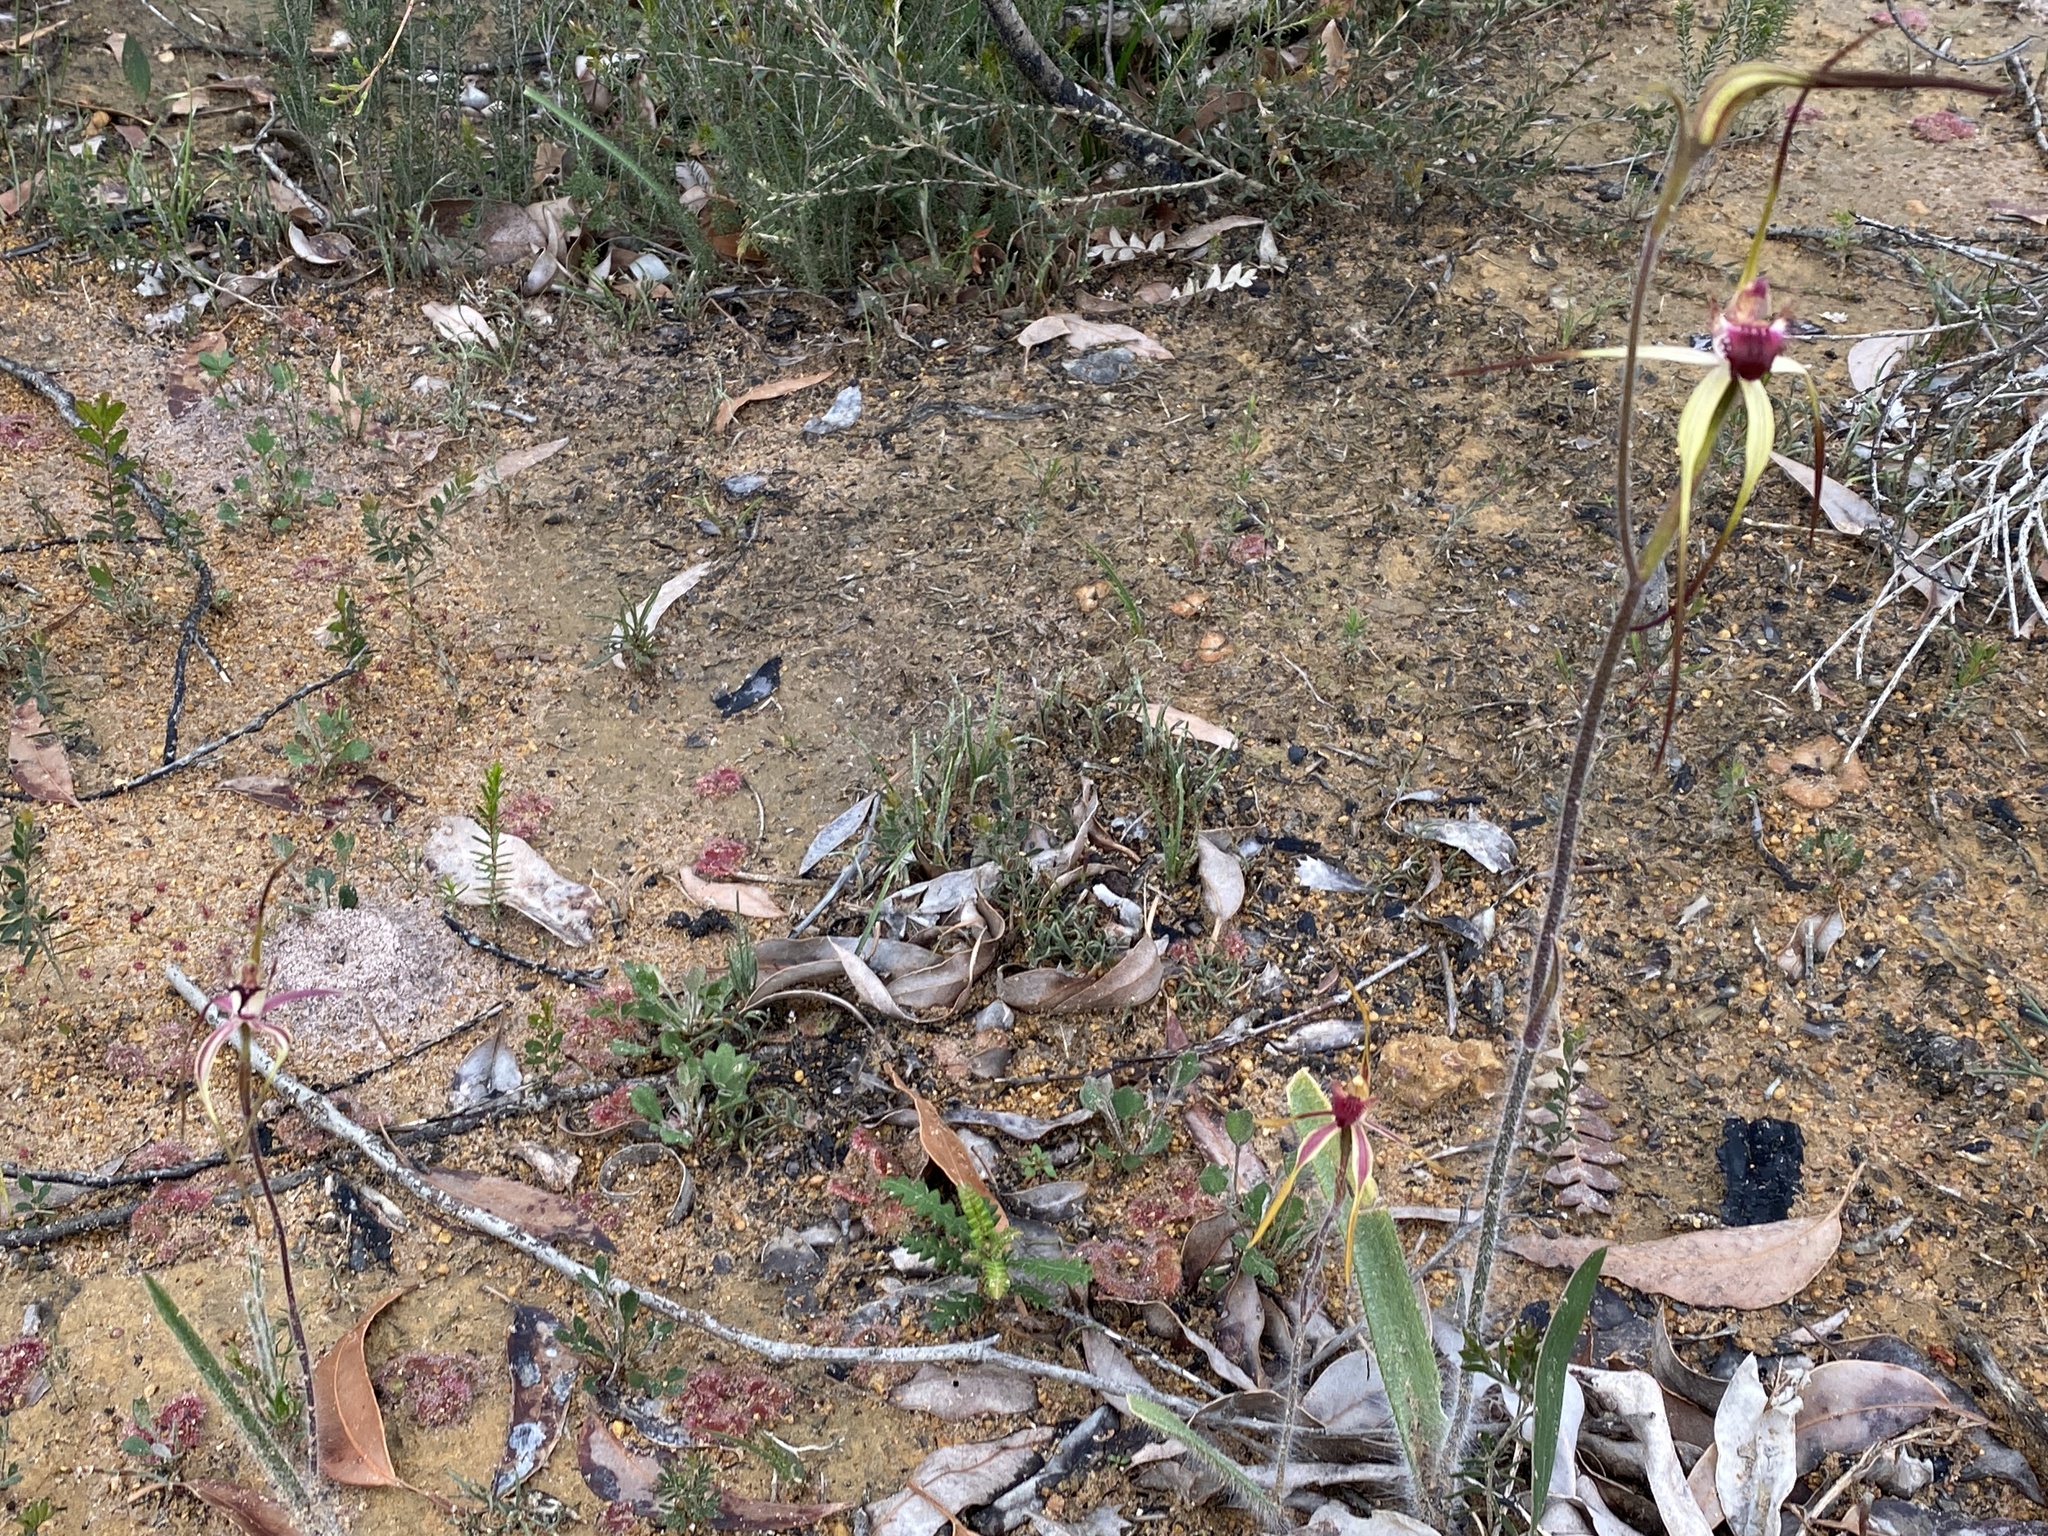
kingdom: Plantae
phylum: Tracheophyta
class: Liliopsida
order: Asparagales
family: Orchidaceae
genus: Caladenia
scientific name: Caladenia longiclavata
